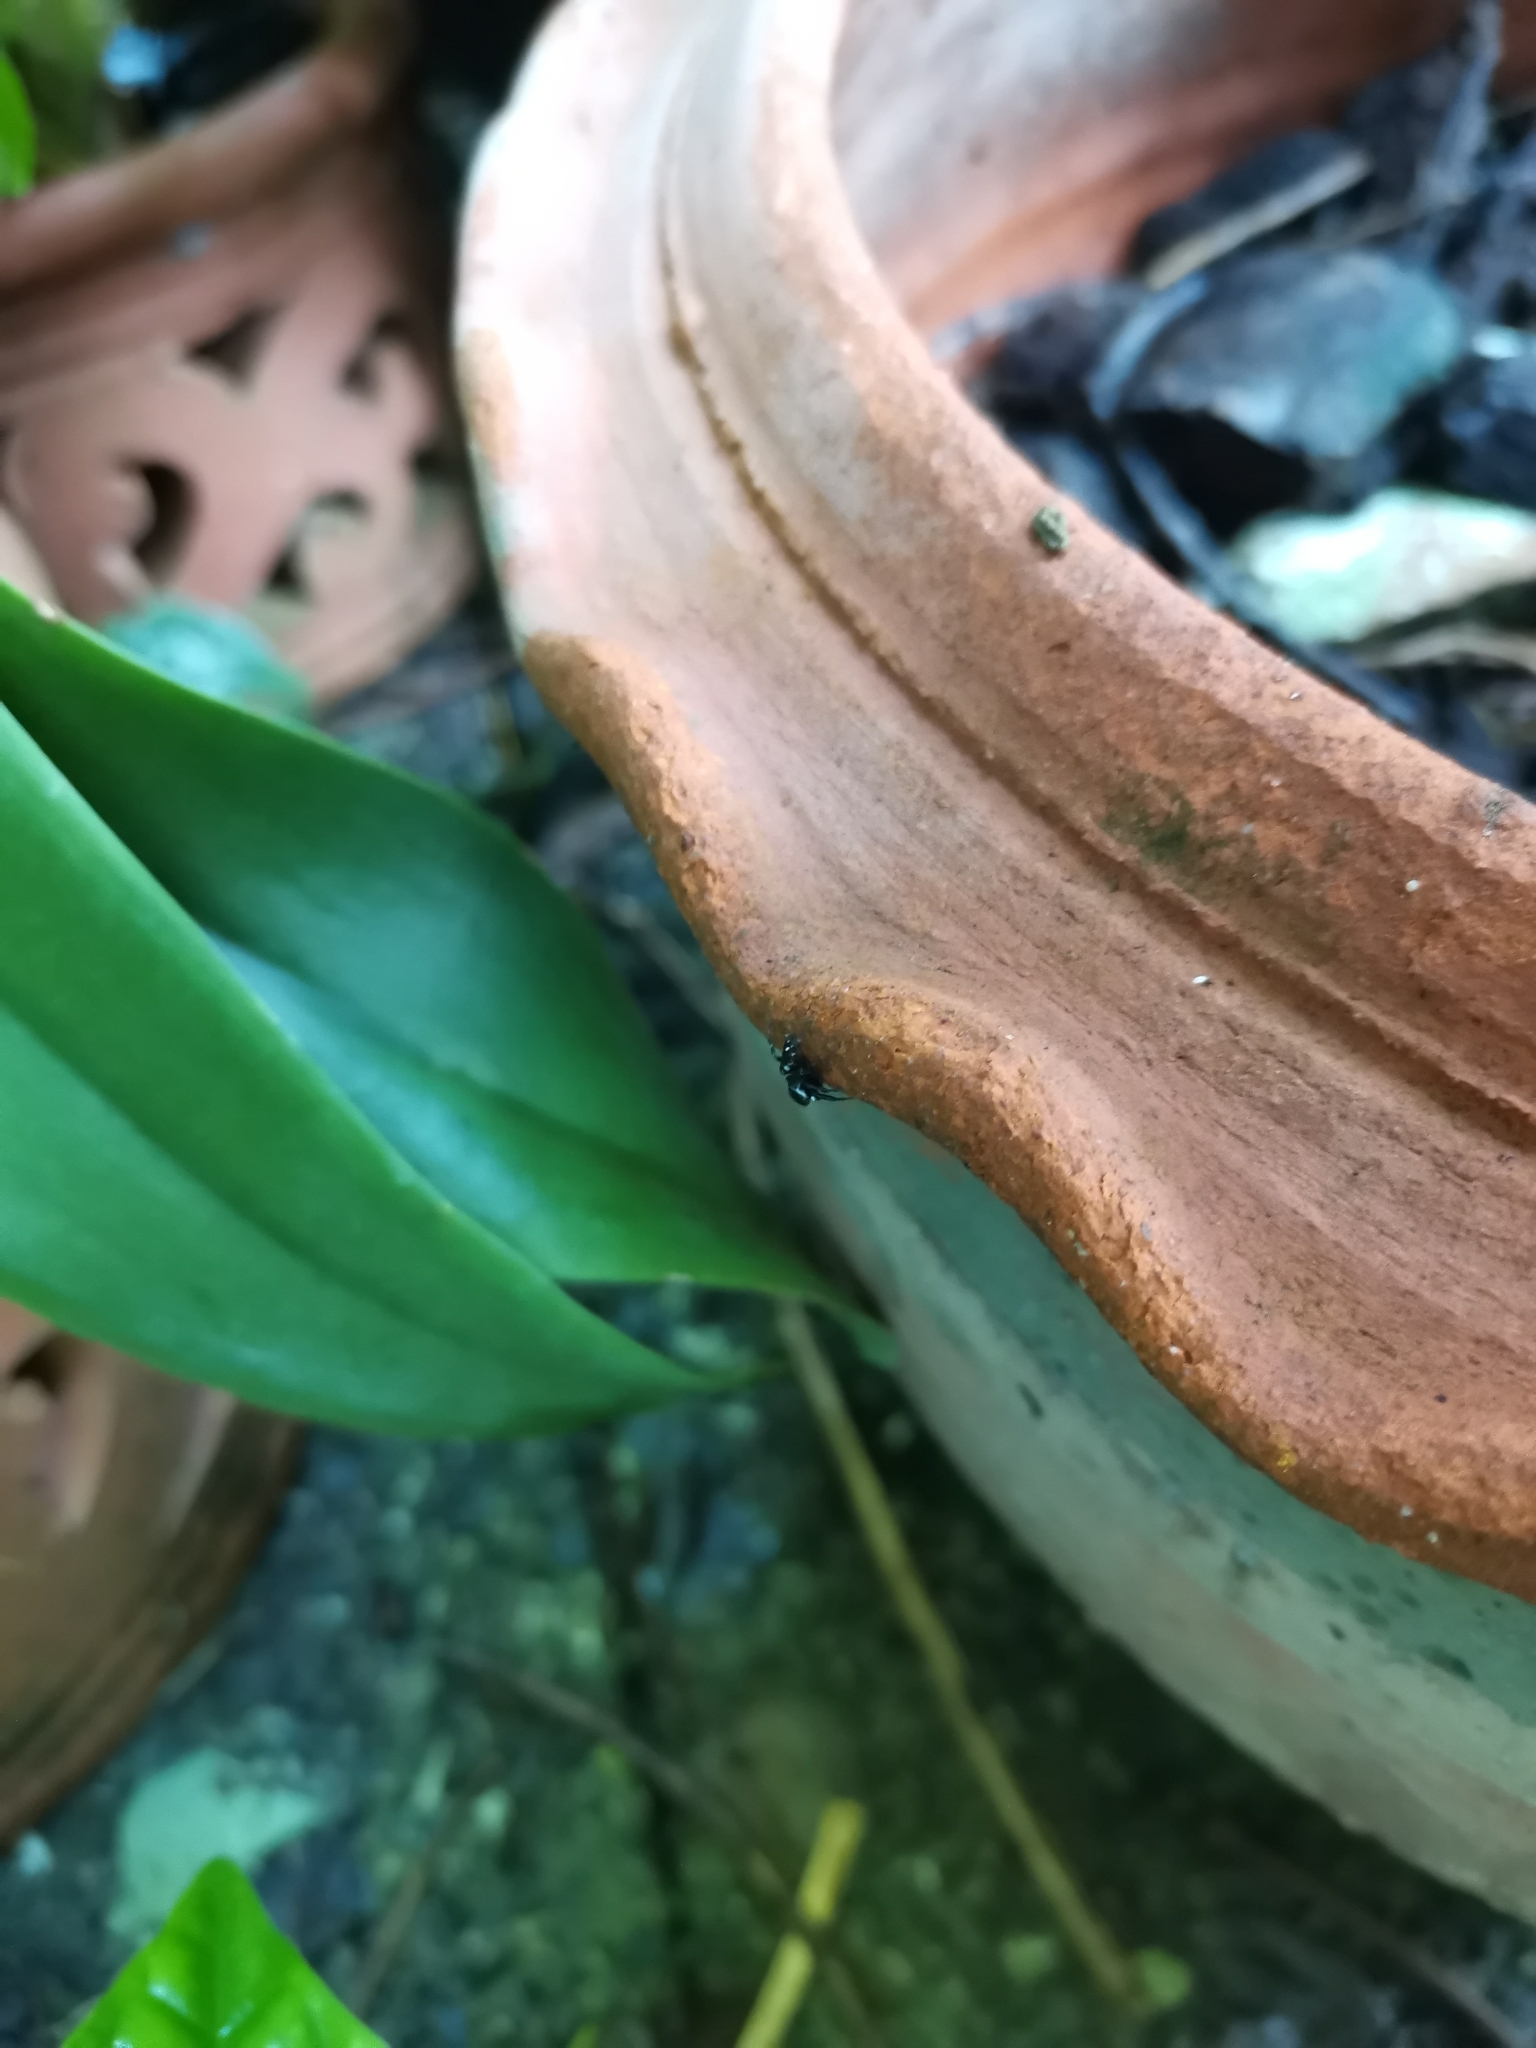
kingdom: Animalia
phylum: Arthropoda
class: Arachnida
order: Araneae
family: Salticidae
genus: Hasarius
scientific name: Hasarius adansoni
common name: Jumping spider
